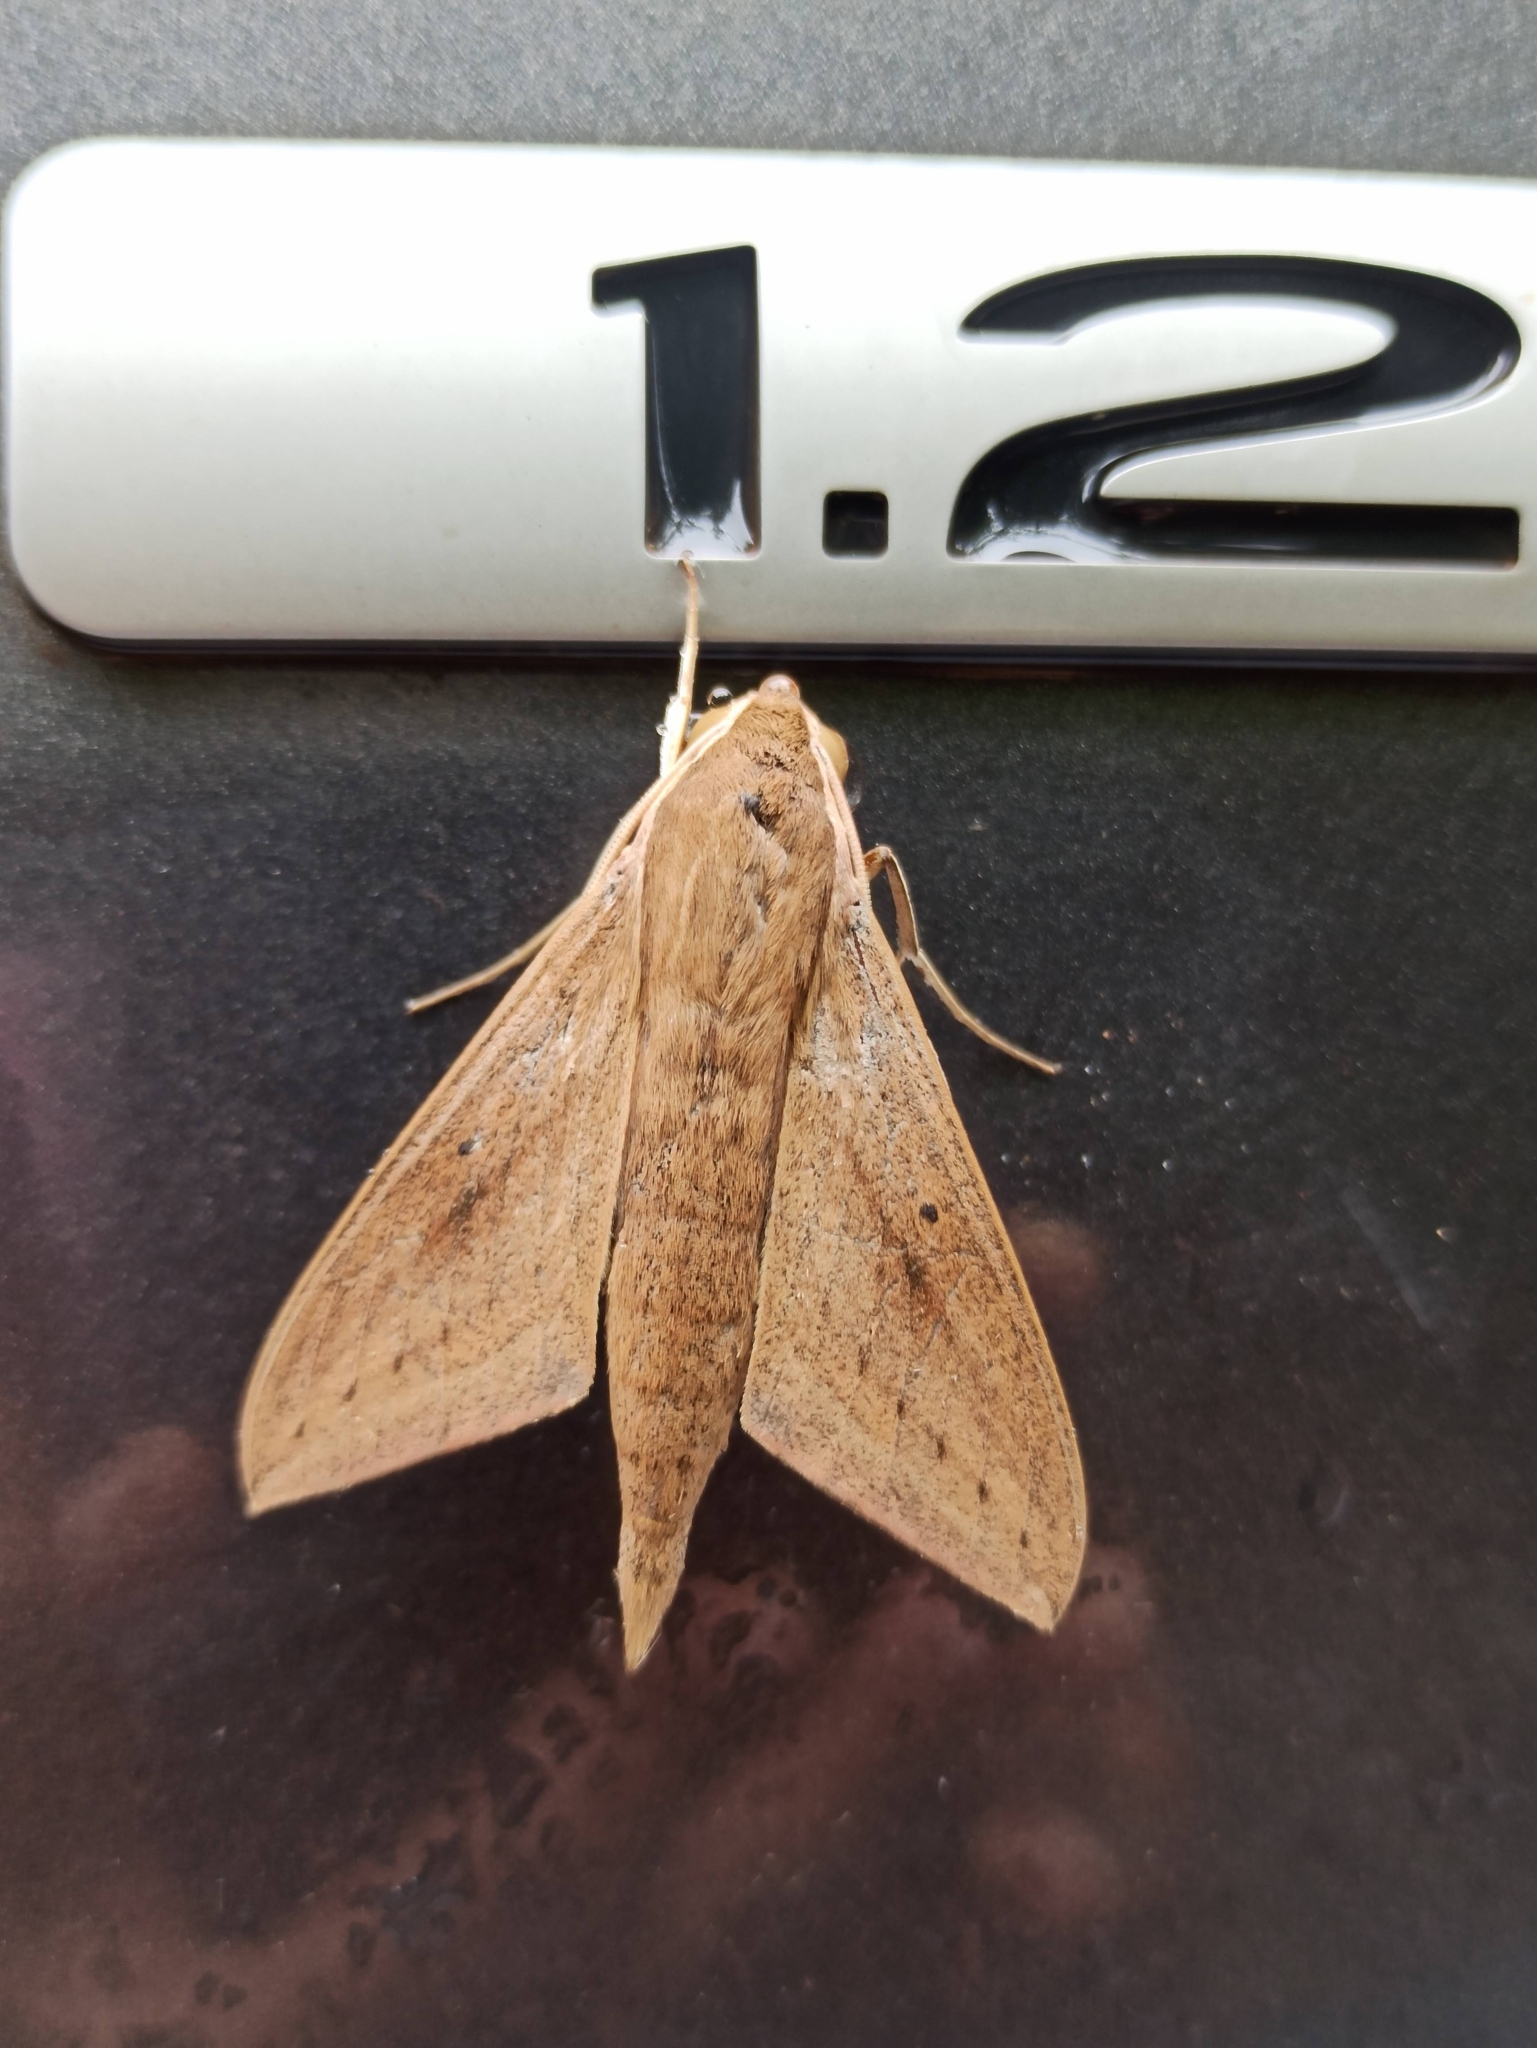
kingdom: Animalia
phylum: Arthropoda
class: Insecta
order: Lepidoptera
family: Sphingidae
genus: Theretra
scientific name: Theretra rhesus
